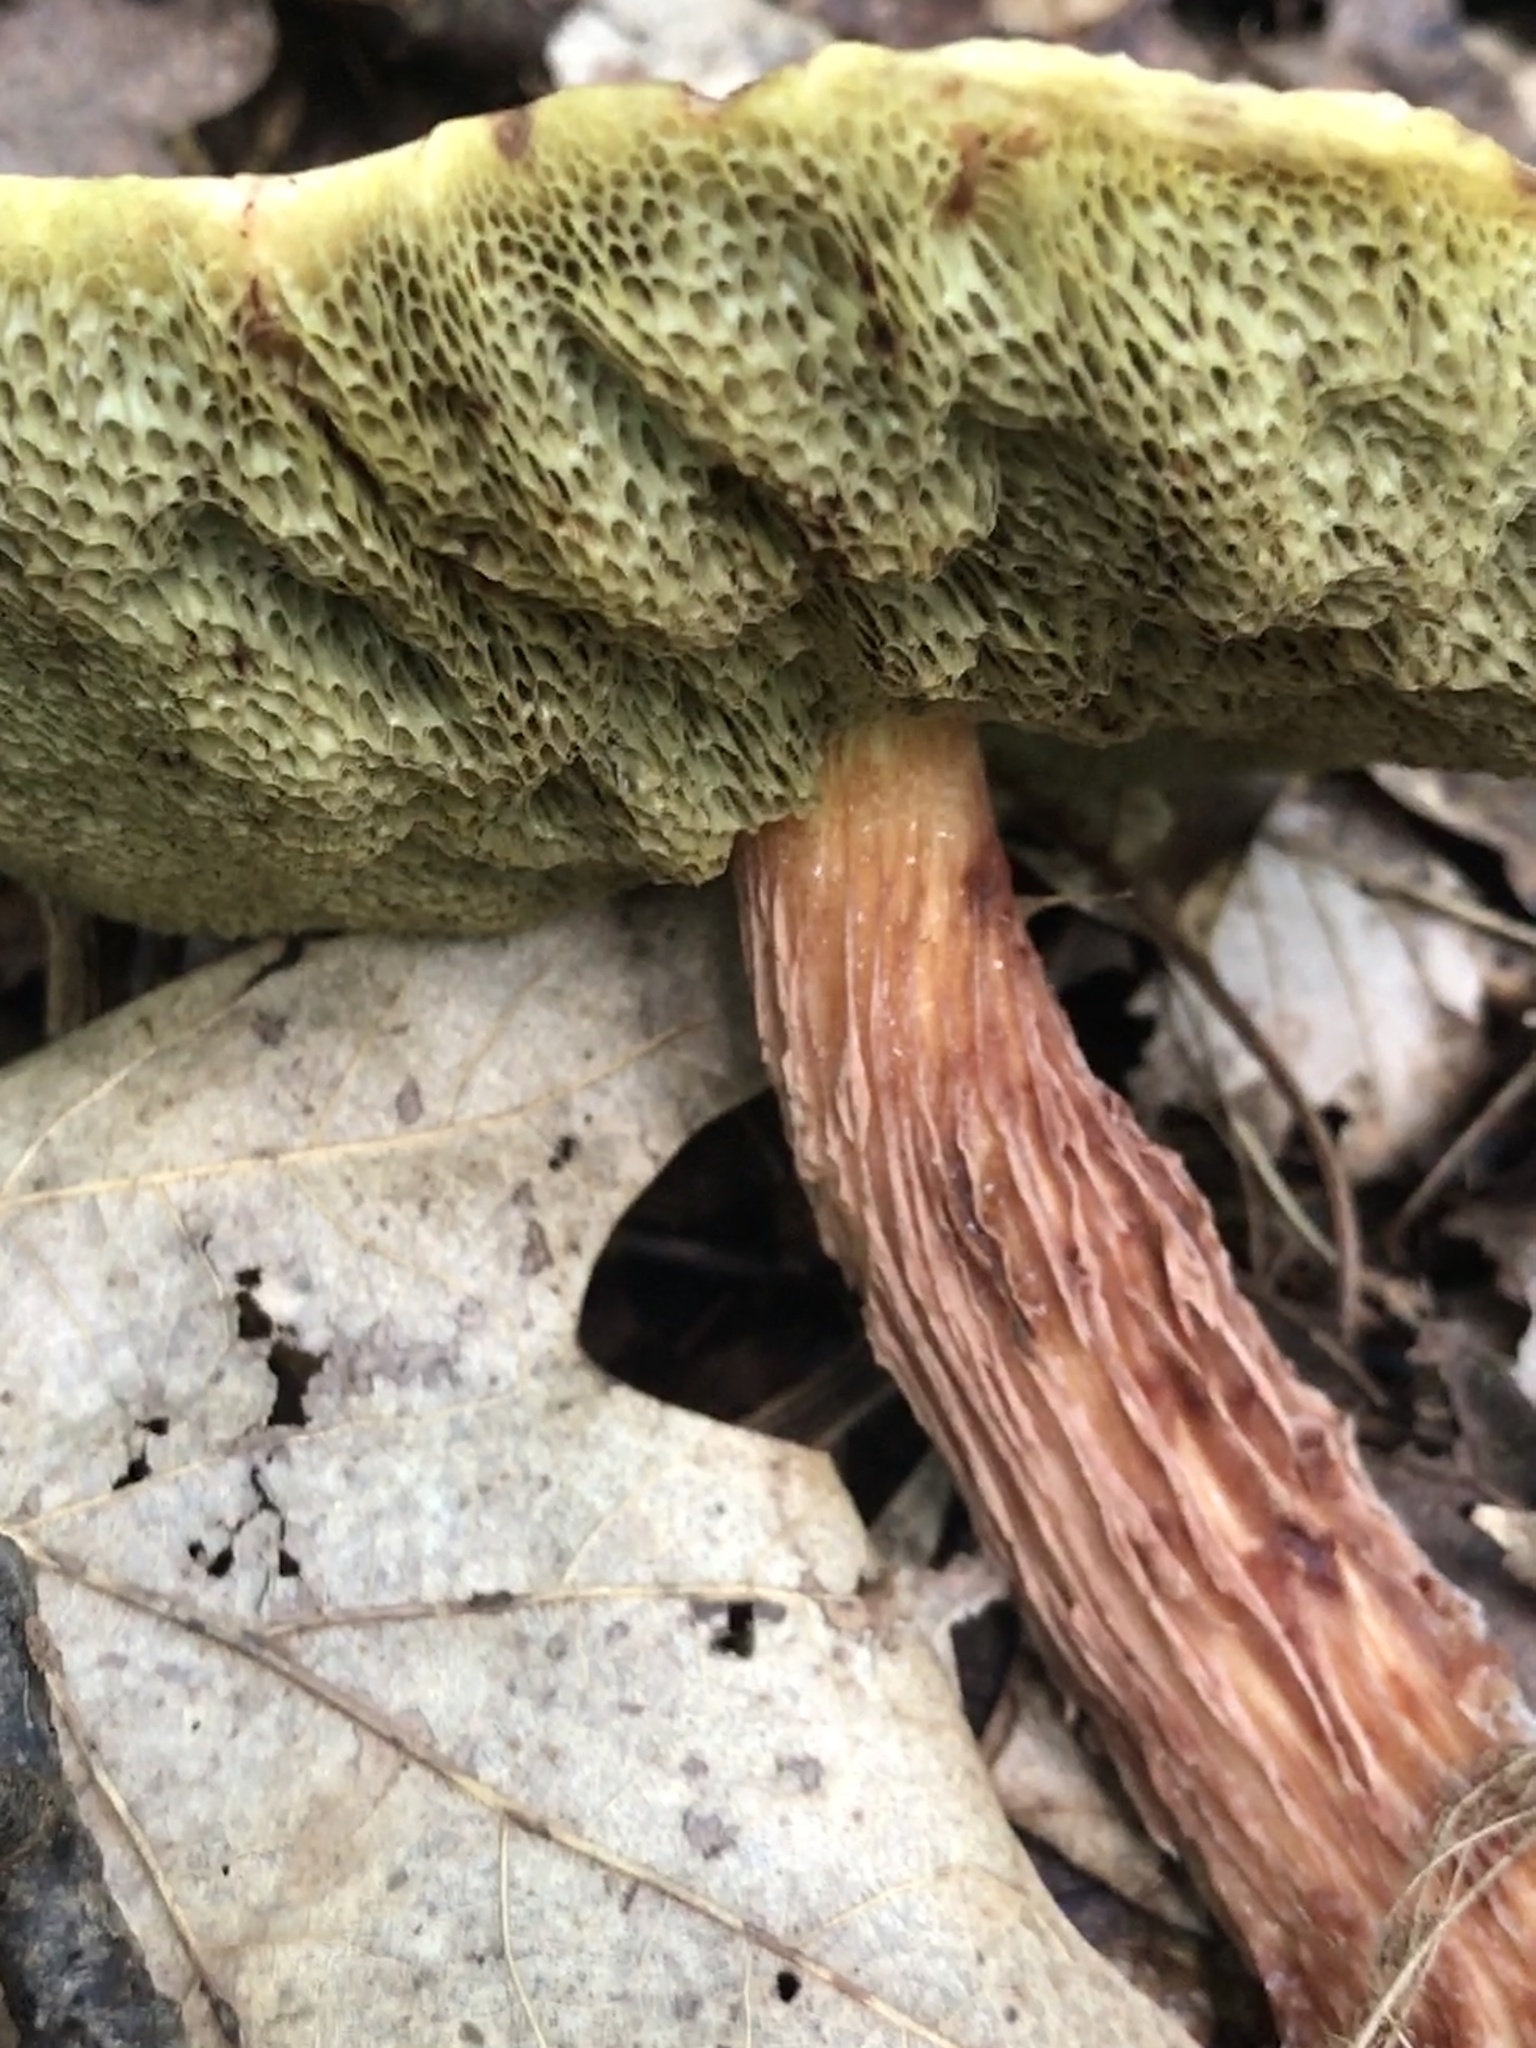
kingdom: Fungi
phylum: Basidiomycota
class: Agaricomycetes
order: Boletales
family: Boletaceae
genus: Aureoboletus
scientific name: Aureoboletus russellii
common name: Russell's bolete
